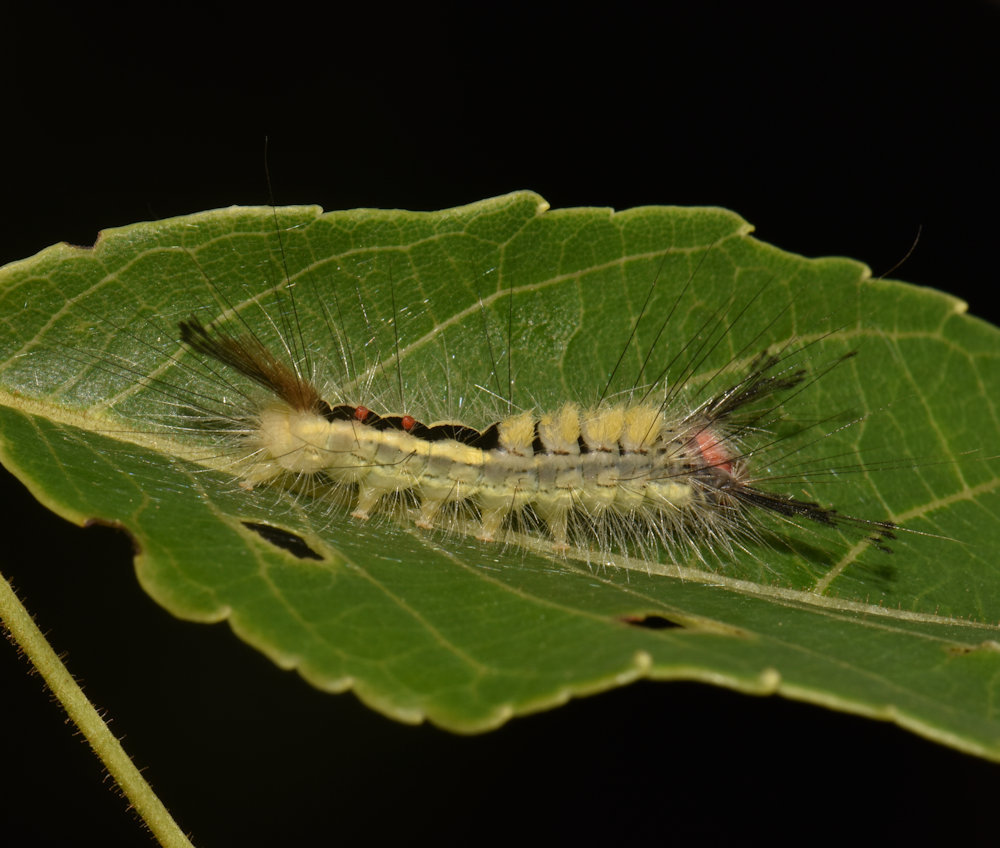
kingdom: Animalia
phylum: Arthropoda
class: Insecta
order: Lepidoptera
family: Erebidae
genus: Orgyia
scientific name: Orgyia leucostigma
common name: White-marked tussock moth
